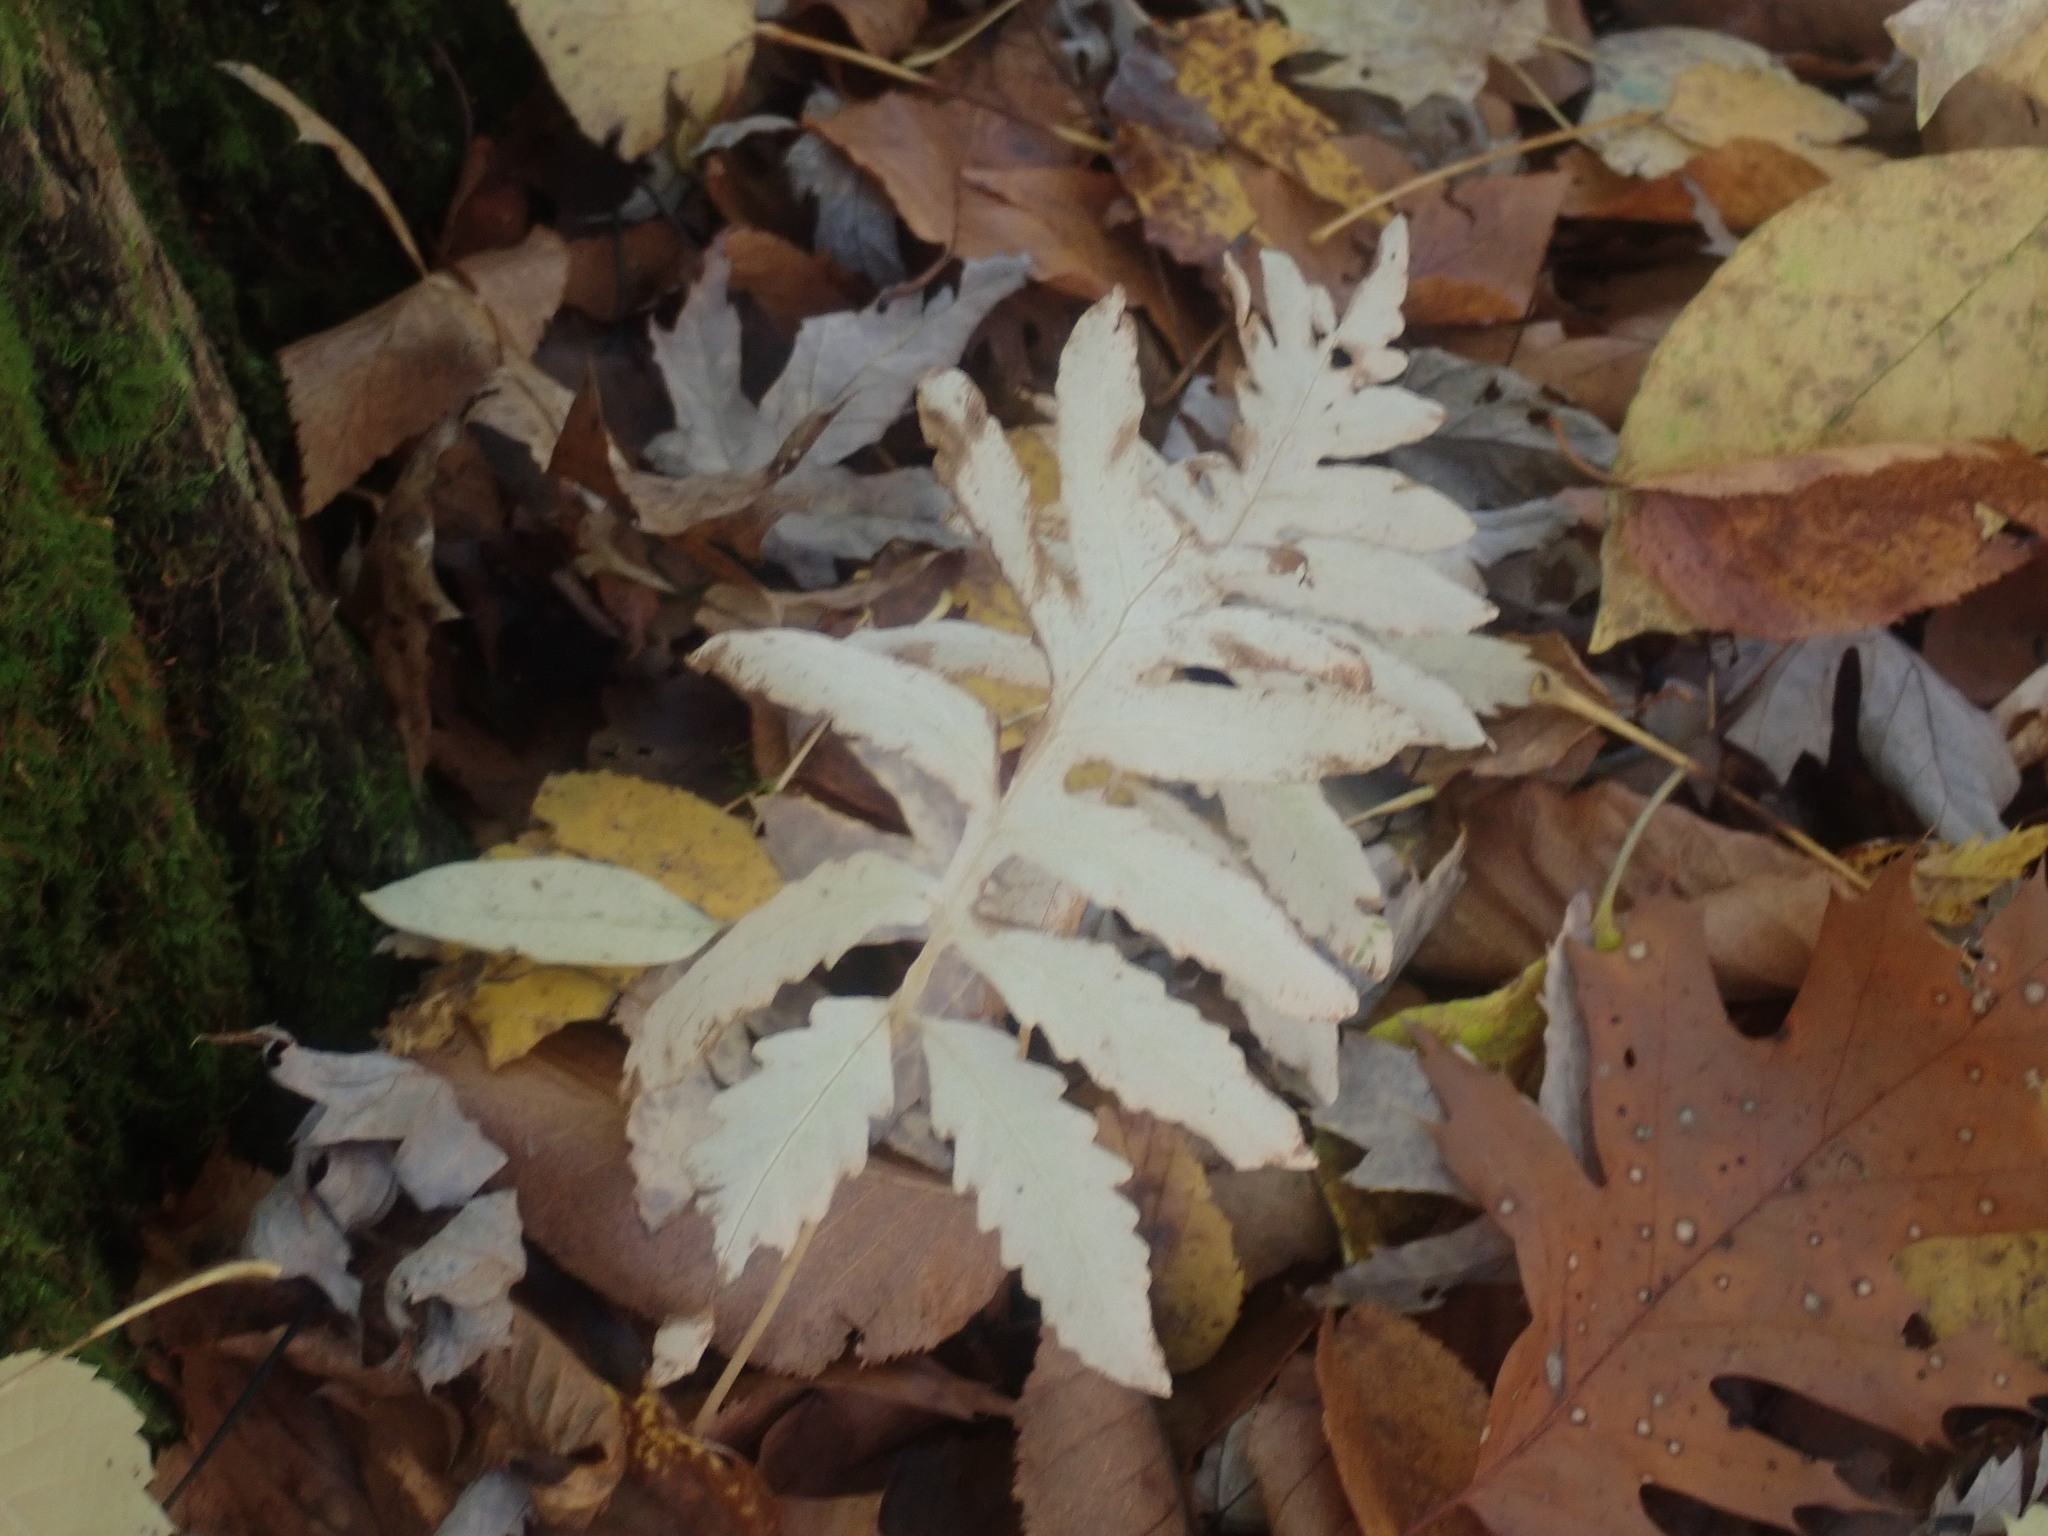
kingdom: Plantae
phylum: Tracheophyta
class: Polypodiopsida
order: Polypodiales
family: Onocleaceae
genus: Onoclea
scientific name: Onoclea sensibilis
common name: Sensitive fern
